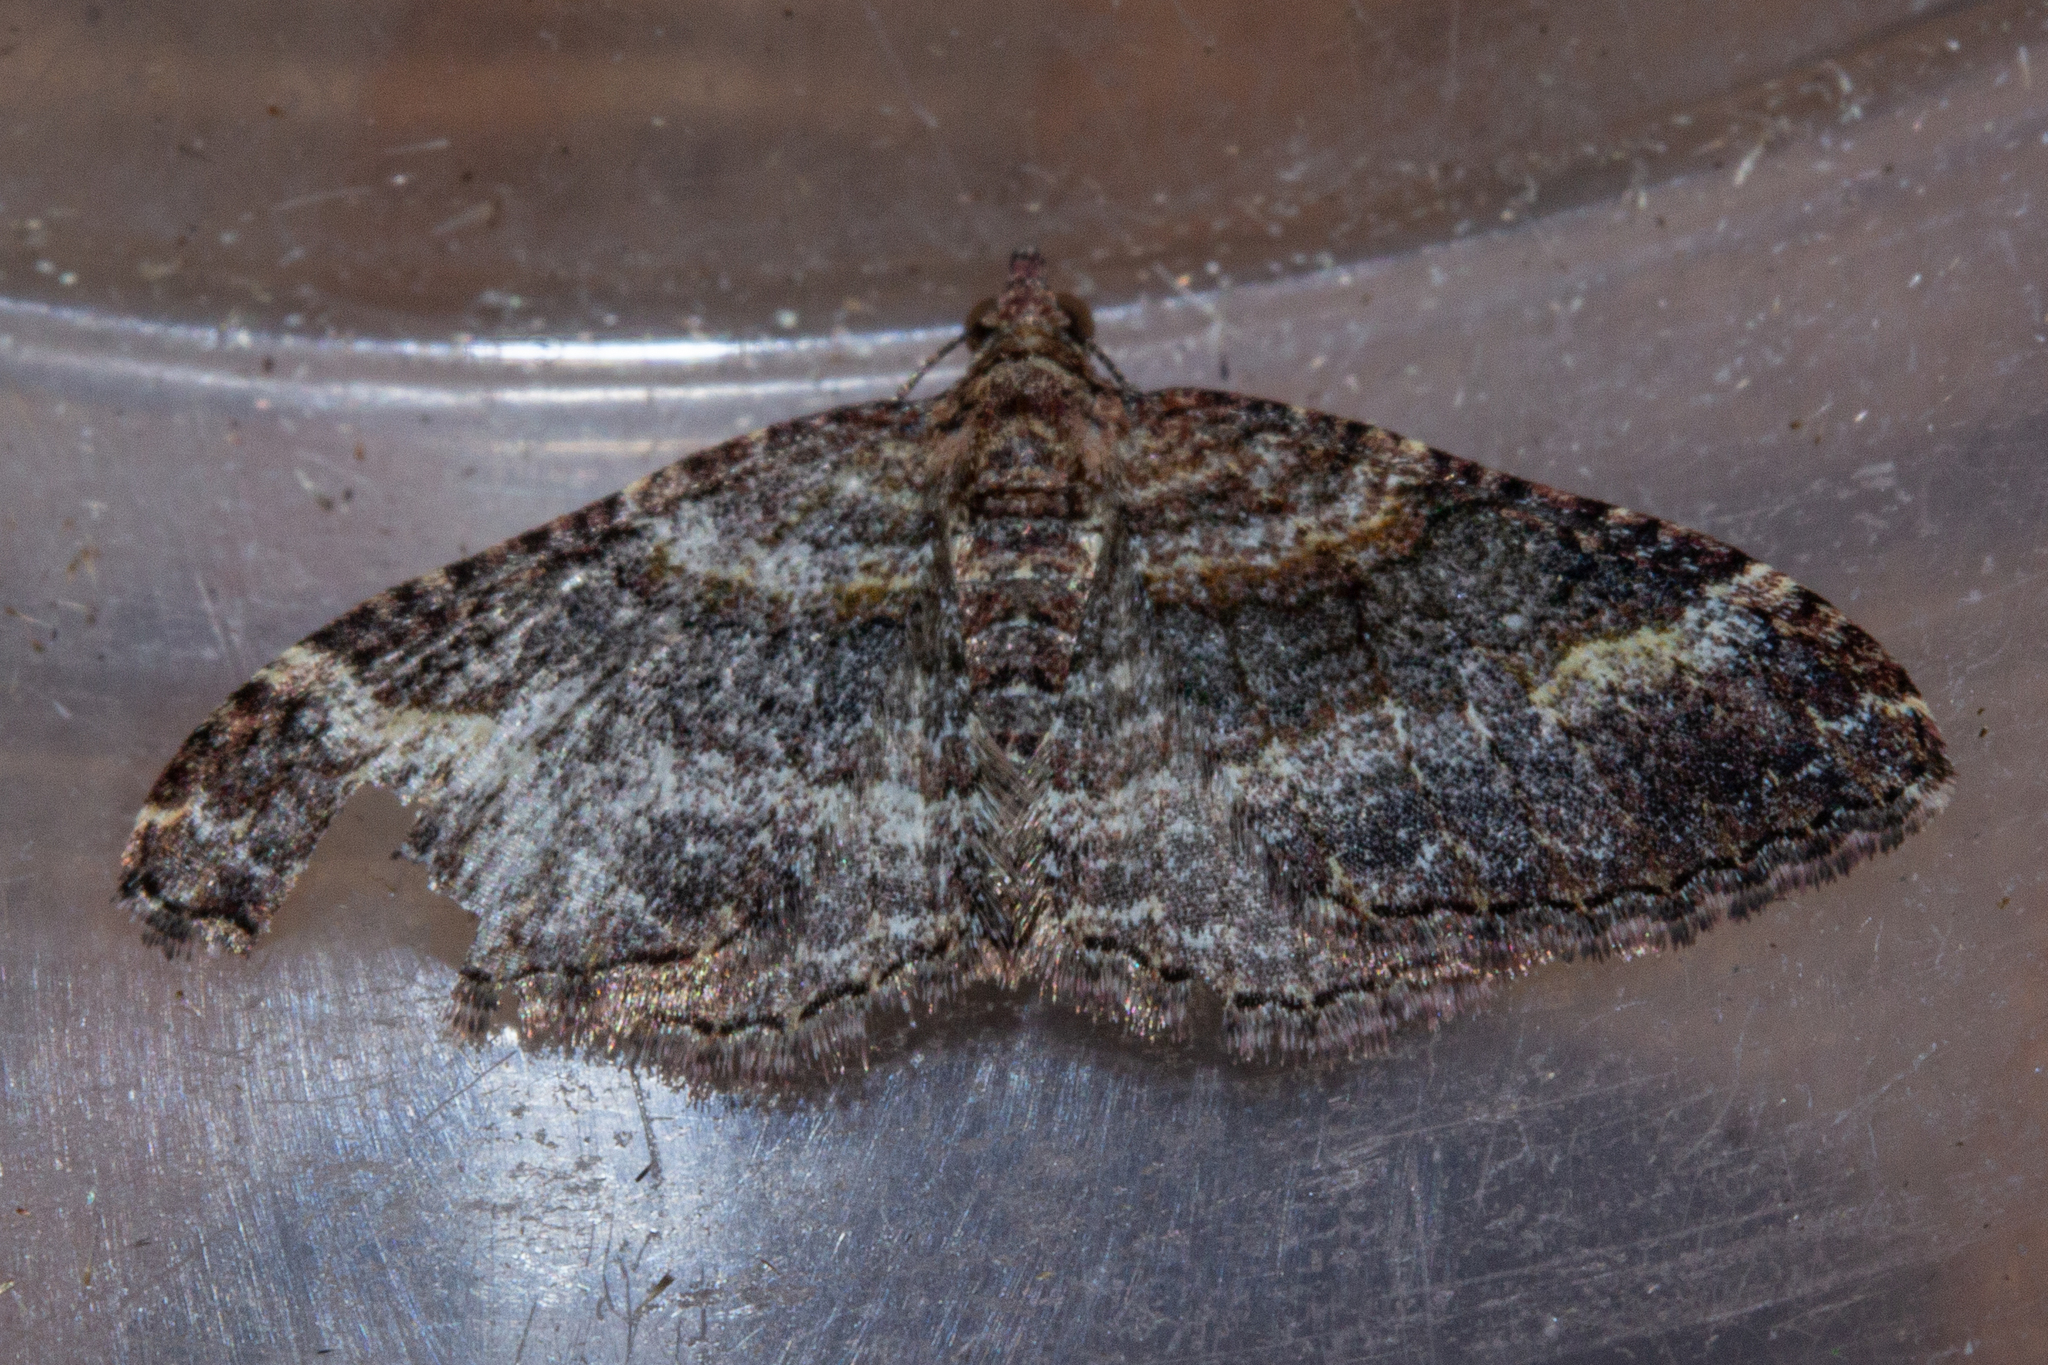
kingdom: Animalia
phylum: Arthropoda
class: Insecta
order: Lepidoptera
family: Geometridae
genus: Epyaxa
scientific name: Epyaxa lucidata
